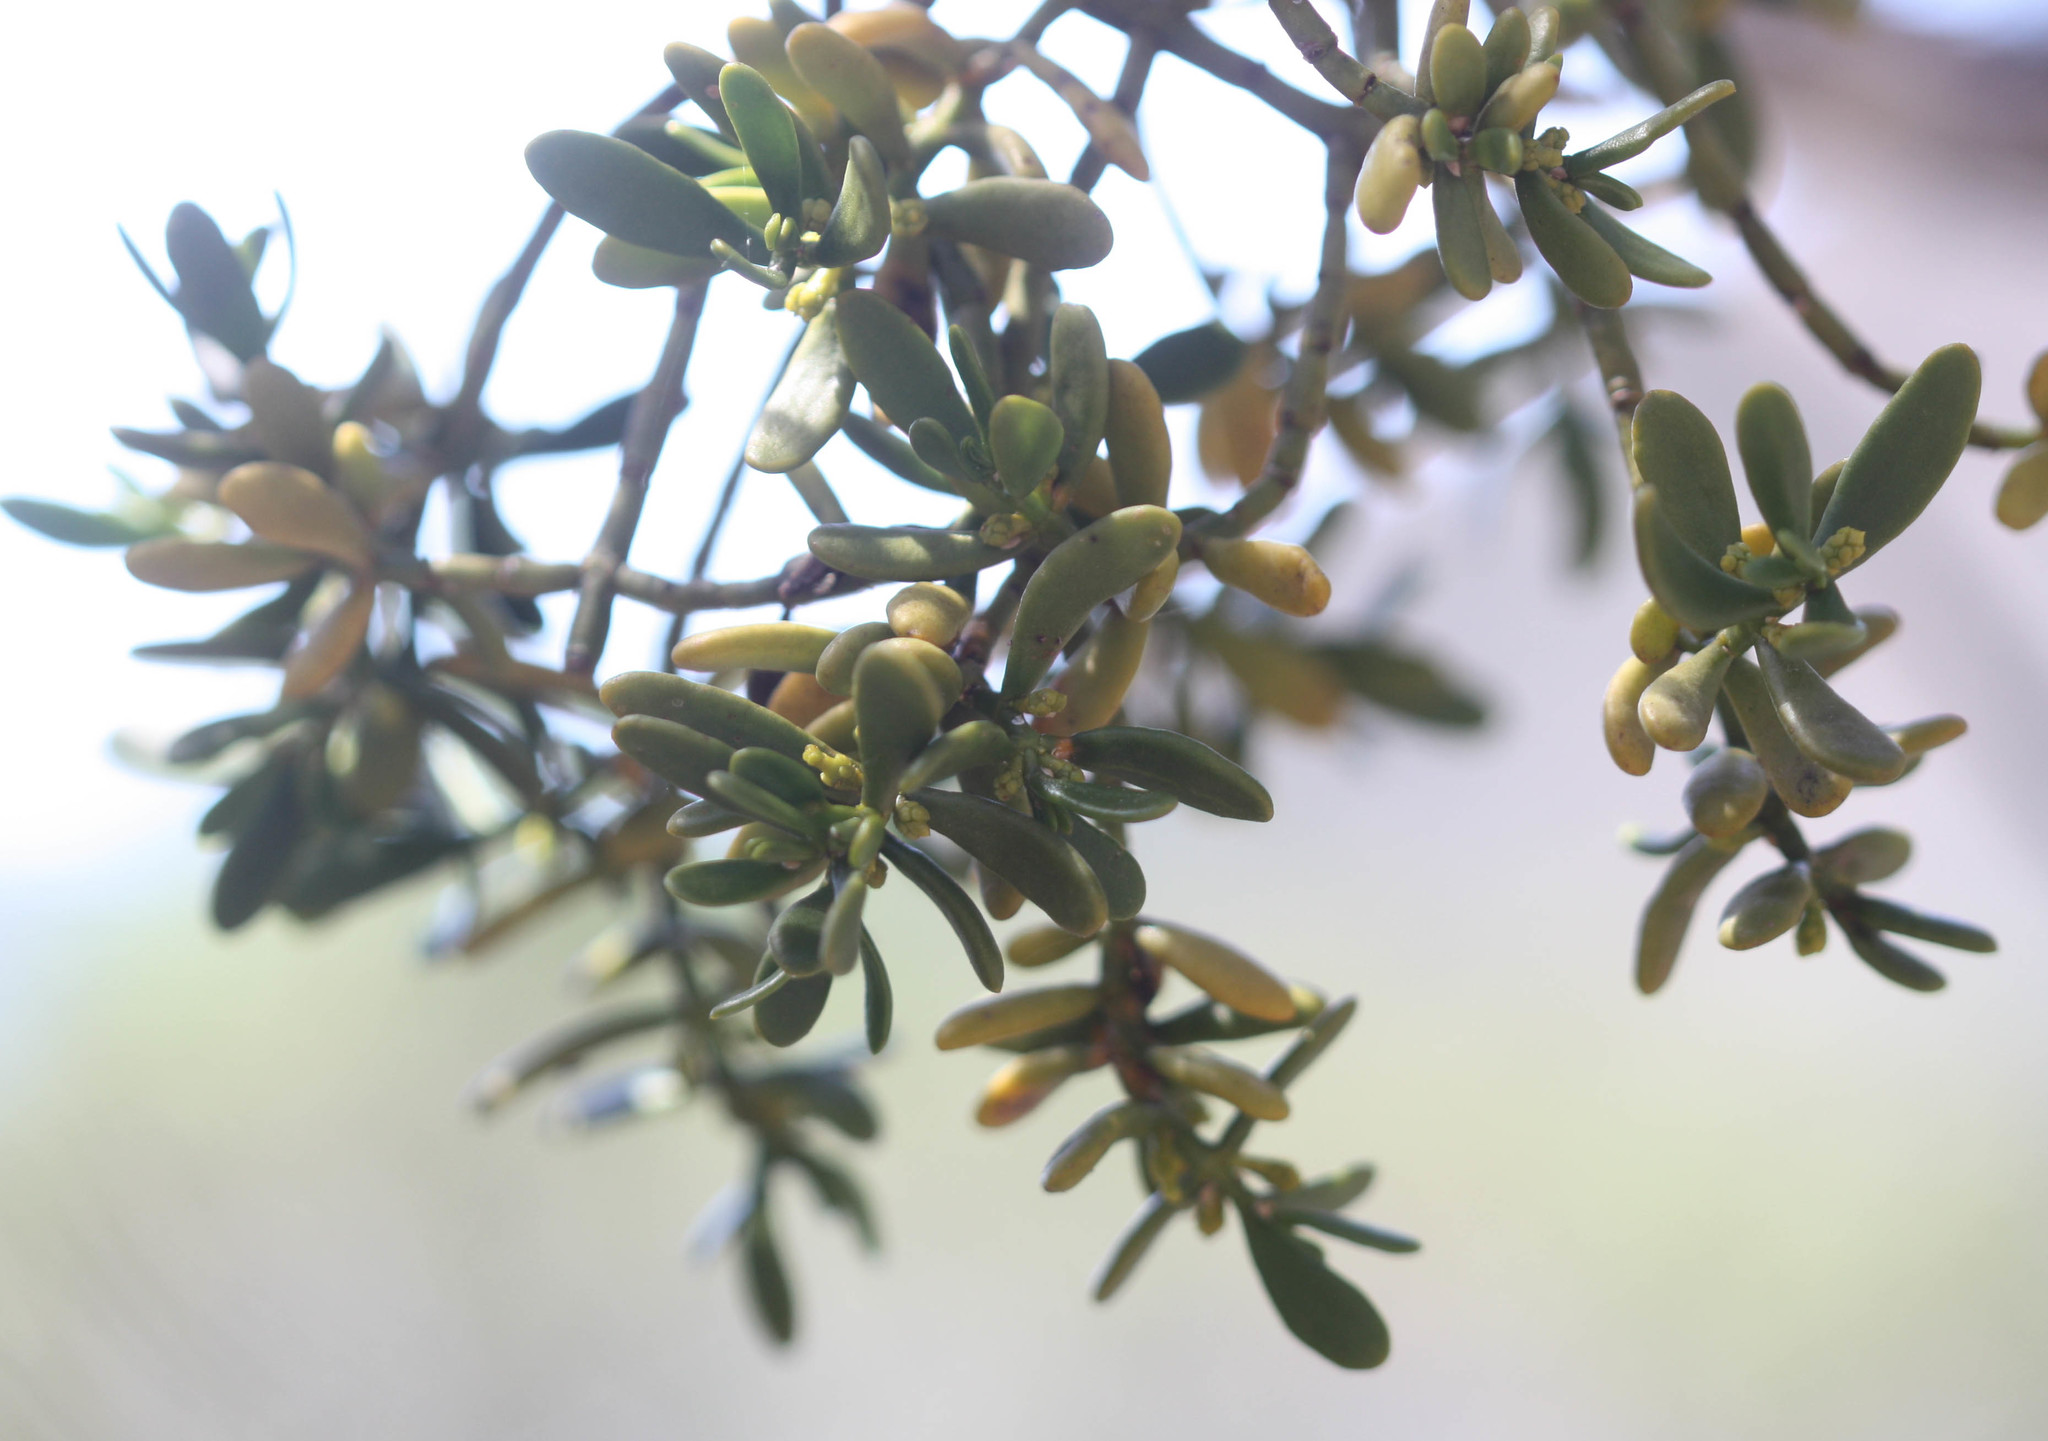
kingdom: Plantae
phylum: Tracheophyta
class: Magnoliopsida
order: Santalales
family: Viscaceae
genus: Phoradendron
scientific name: Phoradendron densum
